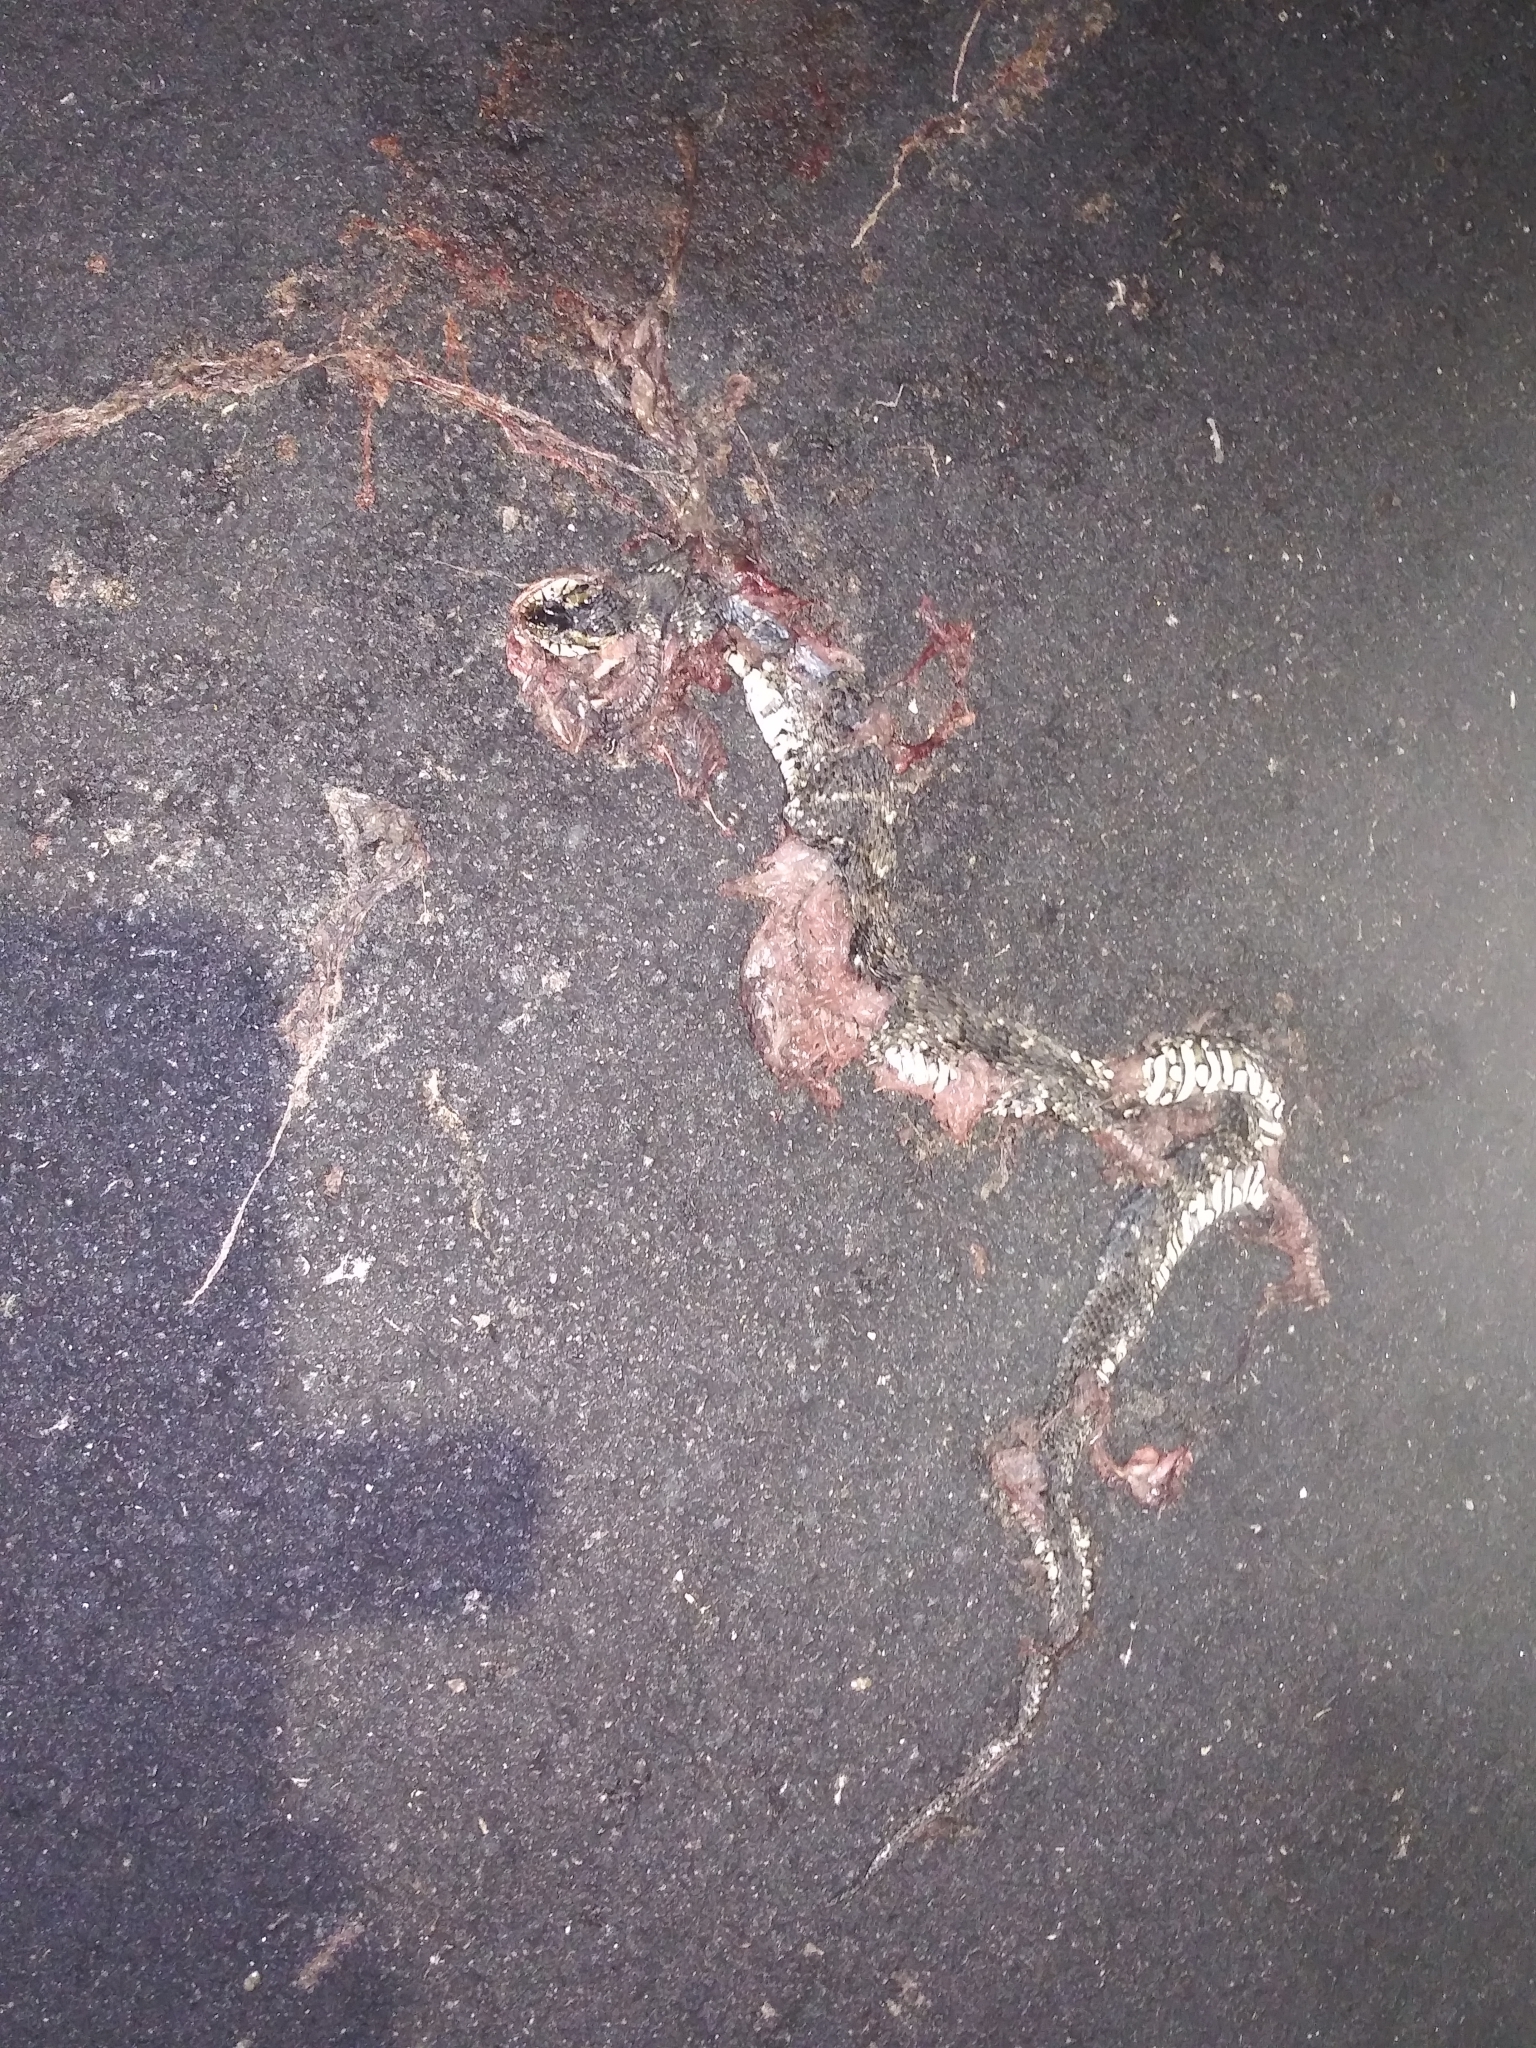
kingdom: Animalia
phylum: Chordata
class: Squamata
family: Colubridae
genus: Nerodia
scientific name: Nerodia fasciata
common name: Southern water snake
